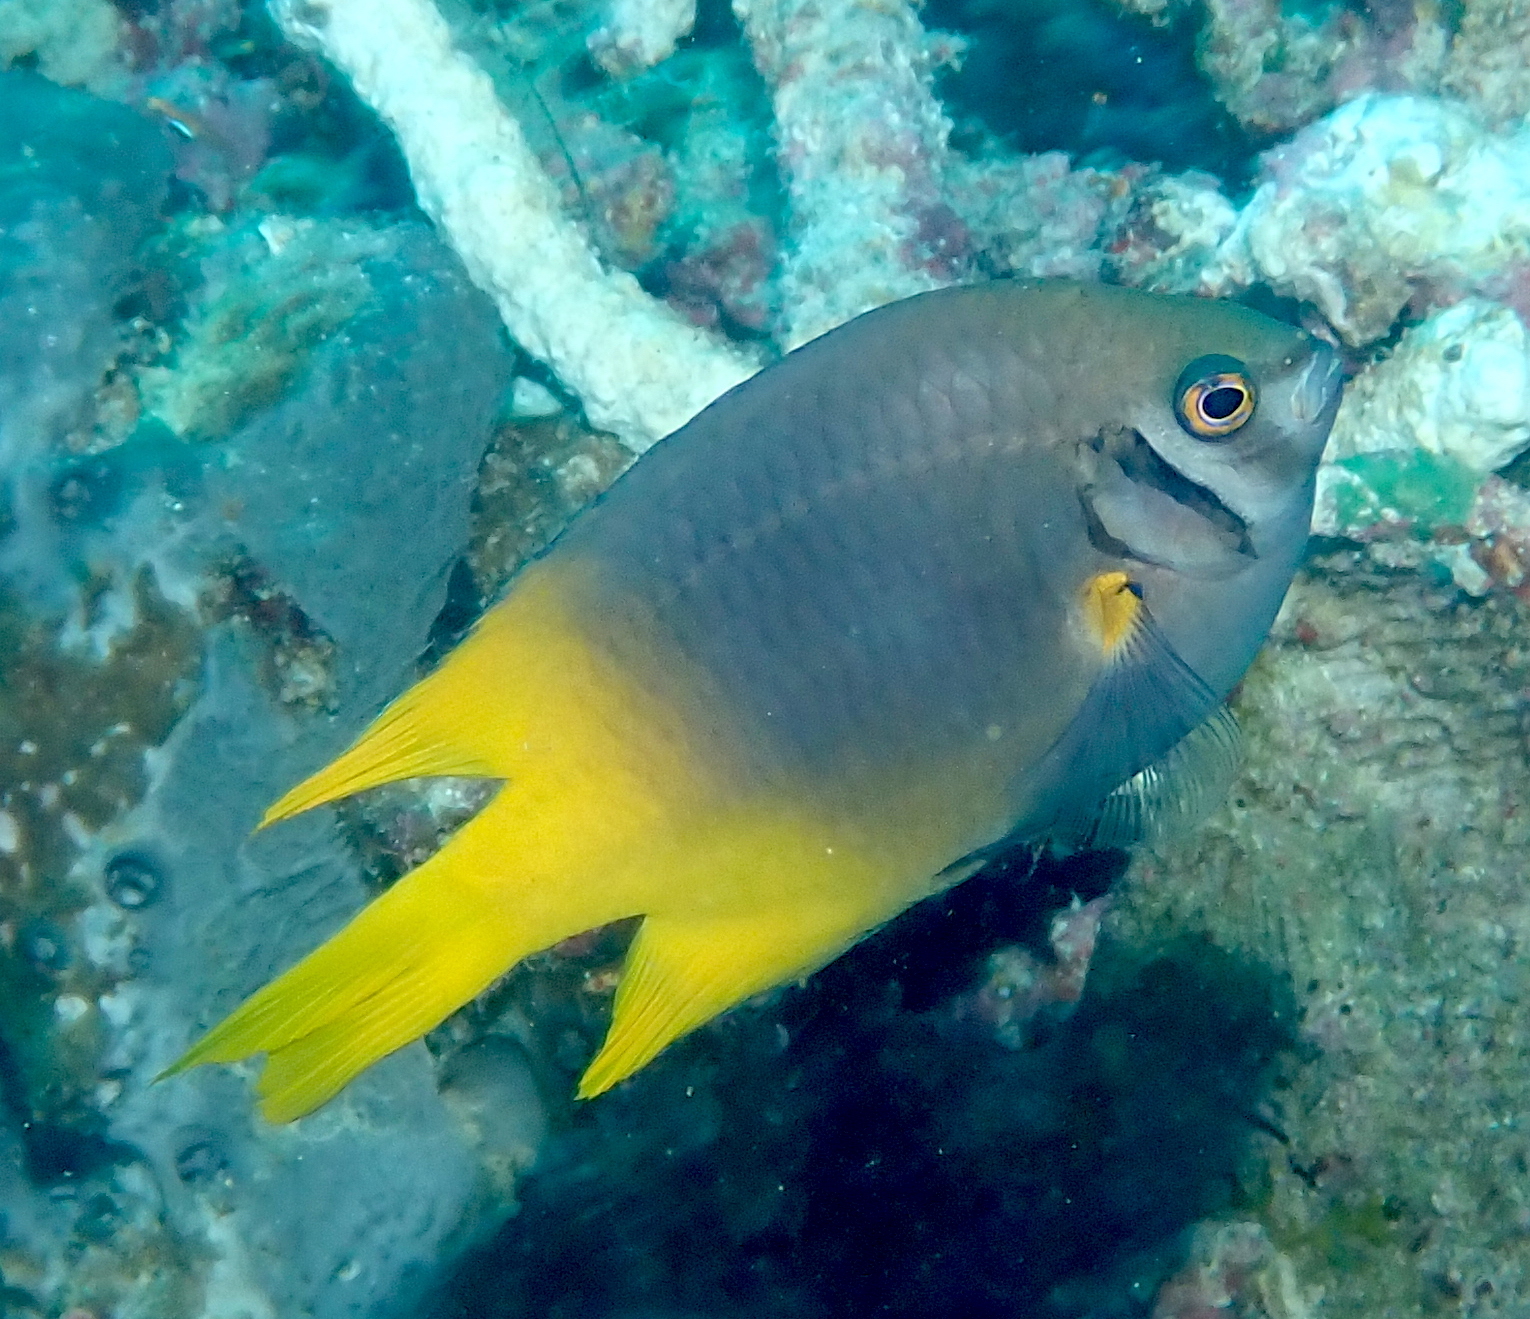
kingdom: Animalia
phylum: Chordata
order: Perciformes
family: Pomacentridae
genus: Neoglyphidodon
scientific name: Neoglyphidodon nigroris
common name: Behn's damsel
